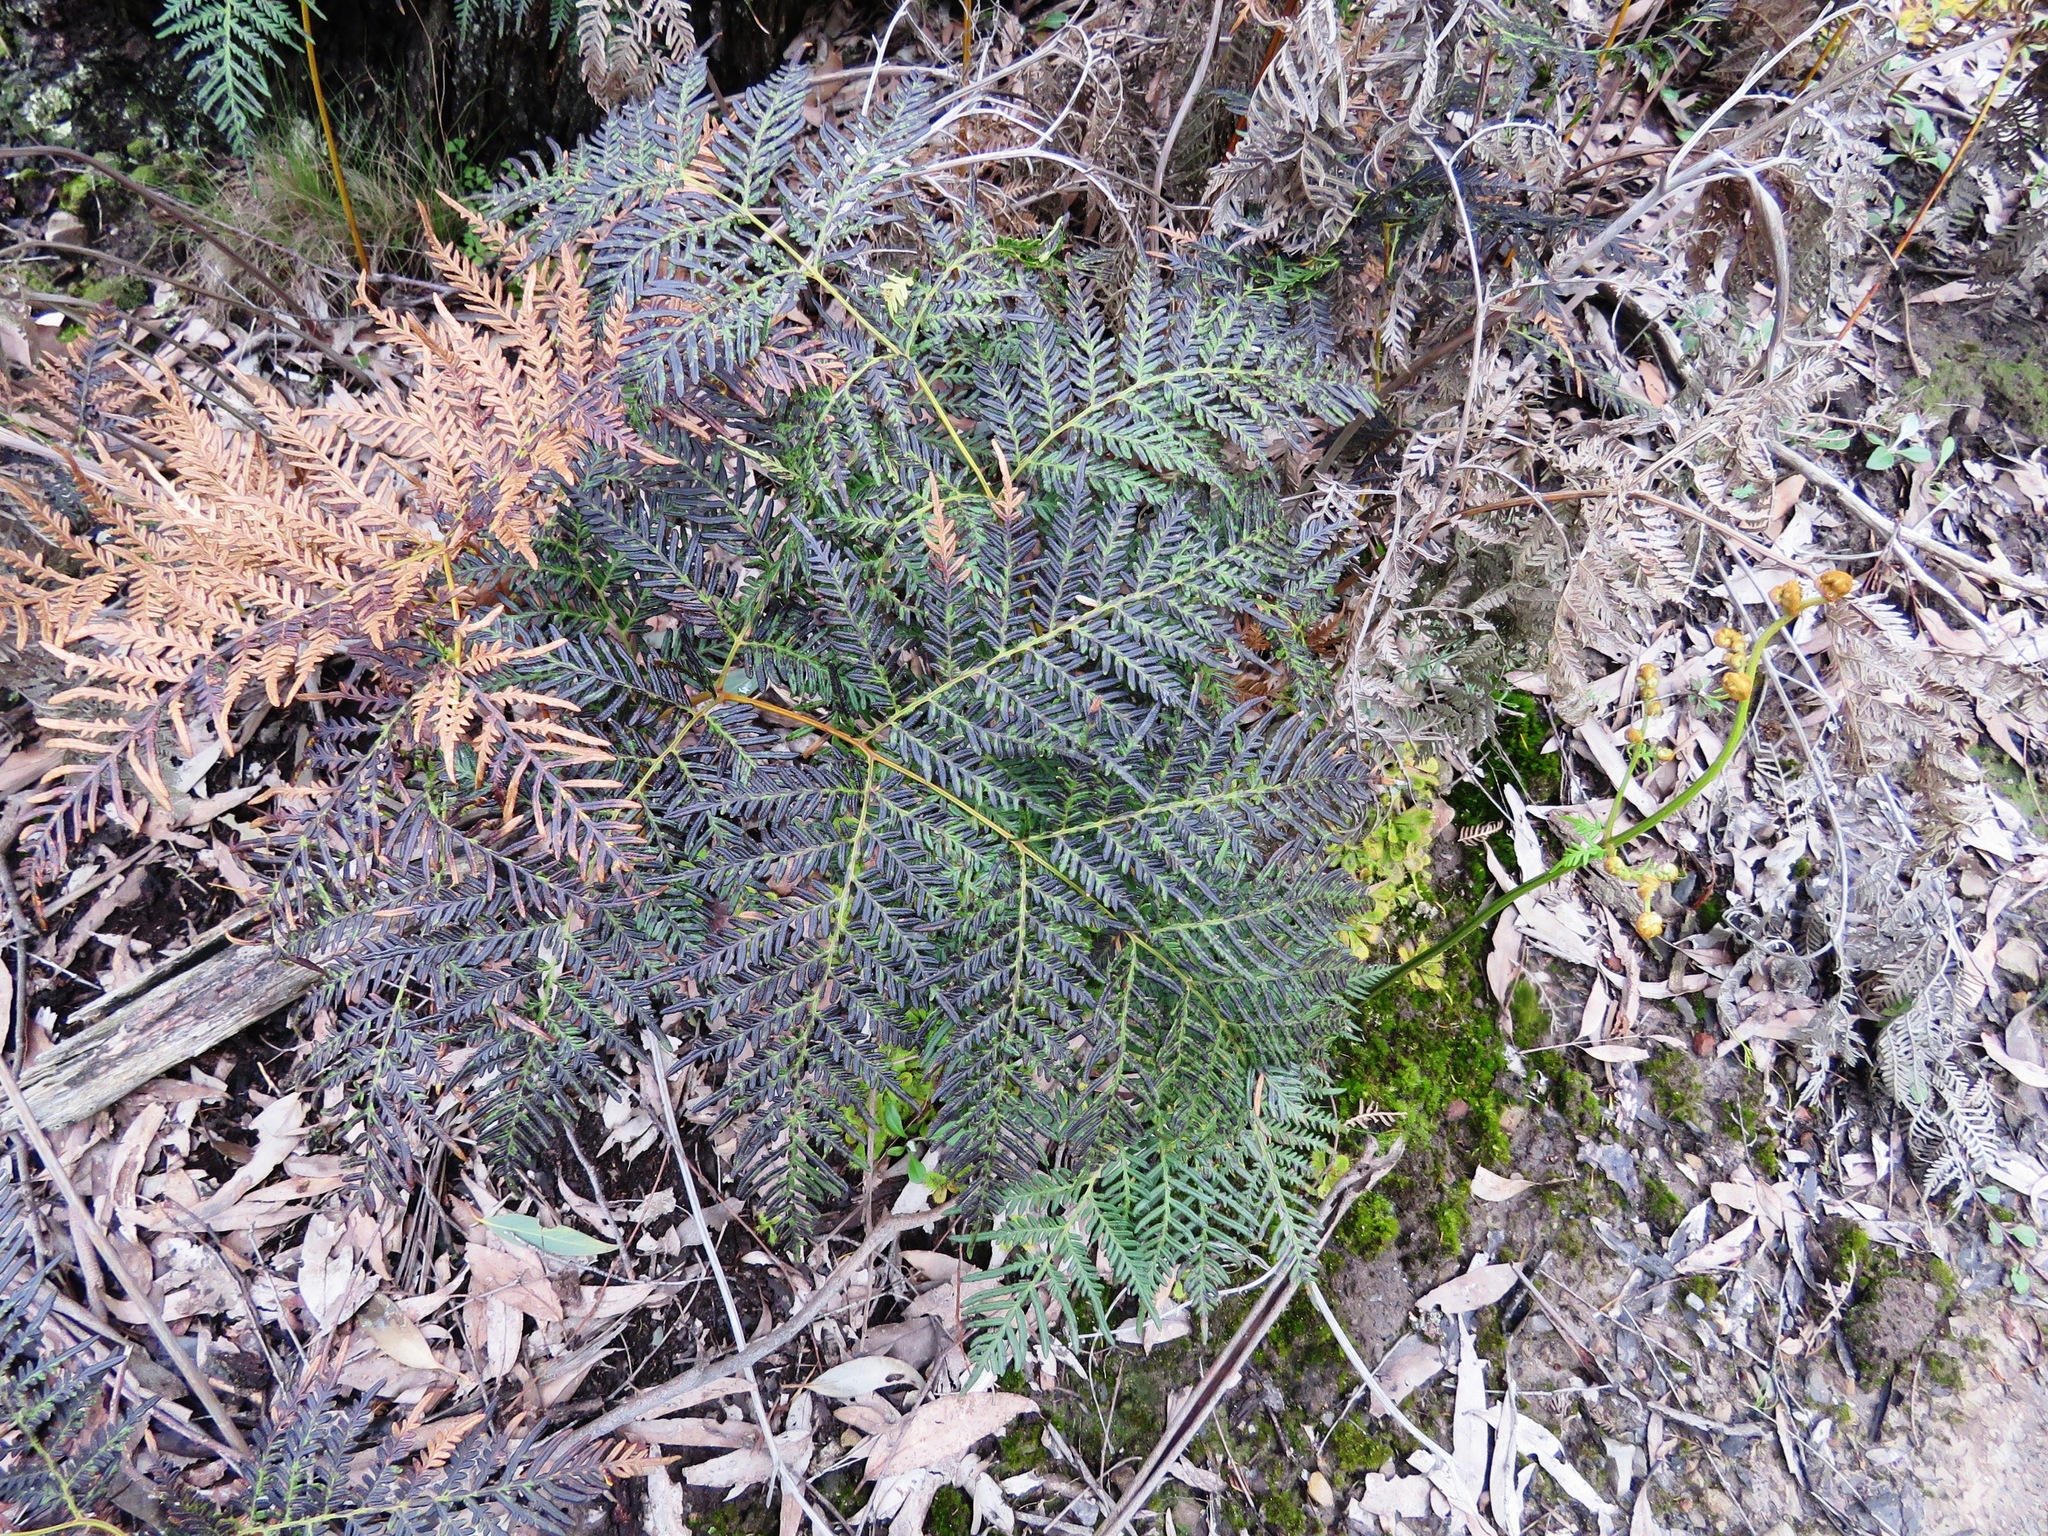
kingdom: Plantae
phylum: Tracheophyta
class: Polypodiopsida
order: Polypodiales
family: Dennstaedtiaceae
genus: Pteridium
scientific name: Pteridium esculentum
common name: Bracken fern
